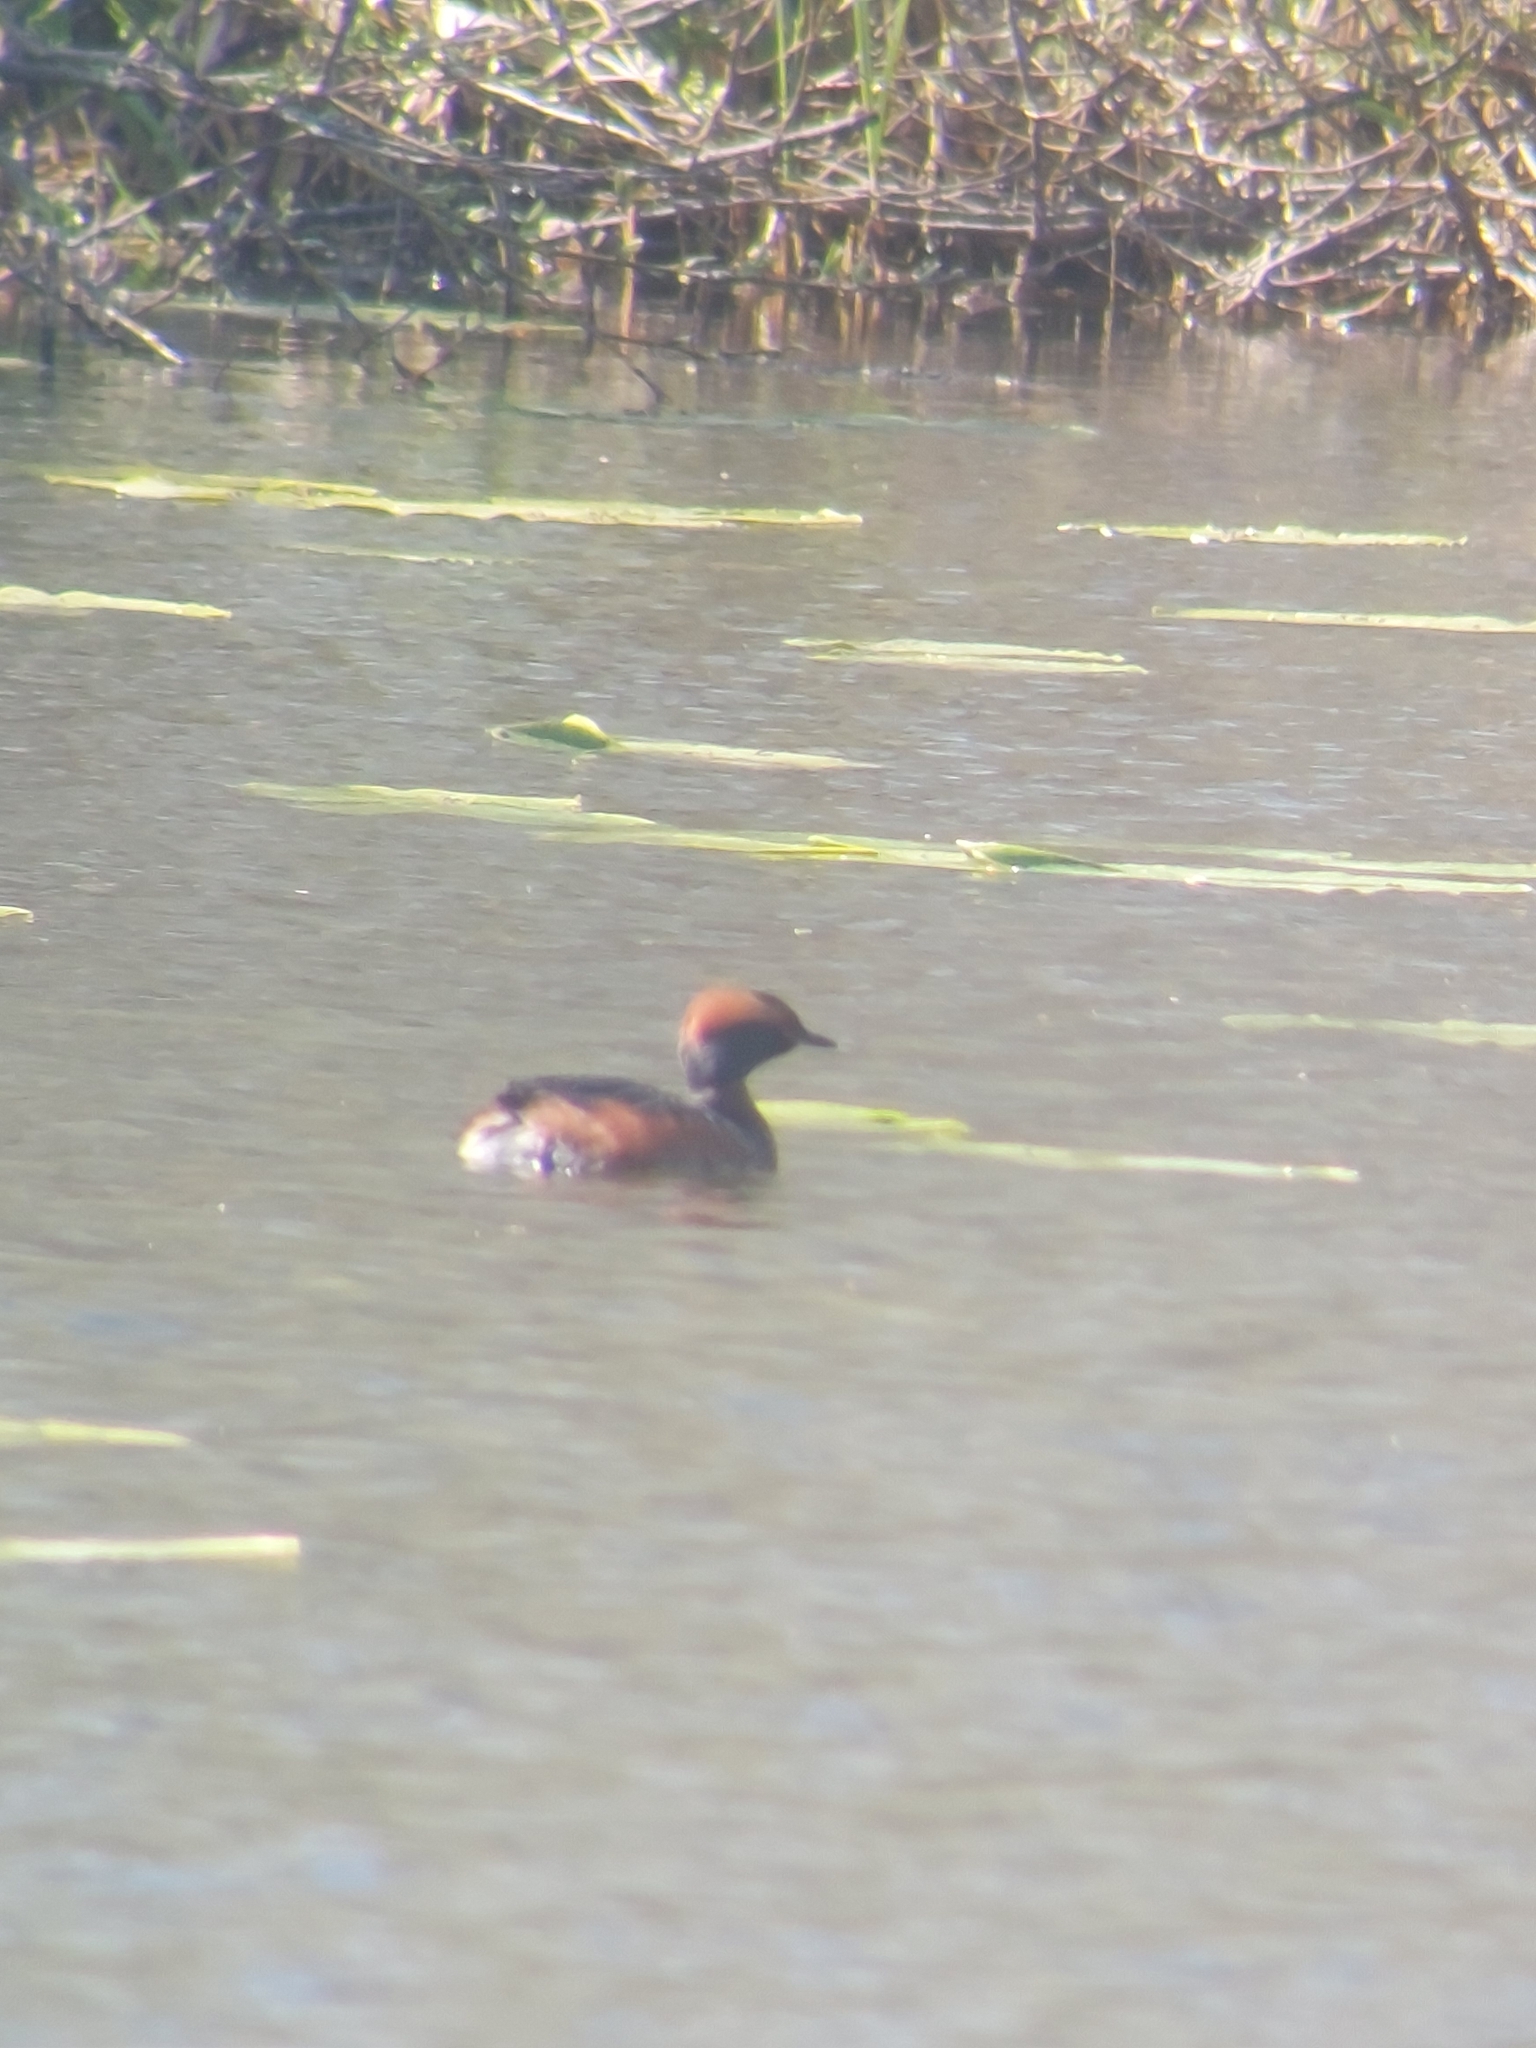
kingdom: Animalia
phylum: Chordata
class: Aves
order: Podicipediformes
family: Podicipedidae
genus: Podiceps
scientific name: Podiceps auritus
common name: Horned grebe
